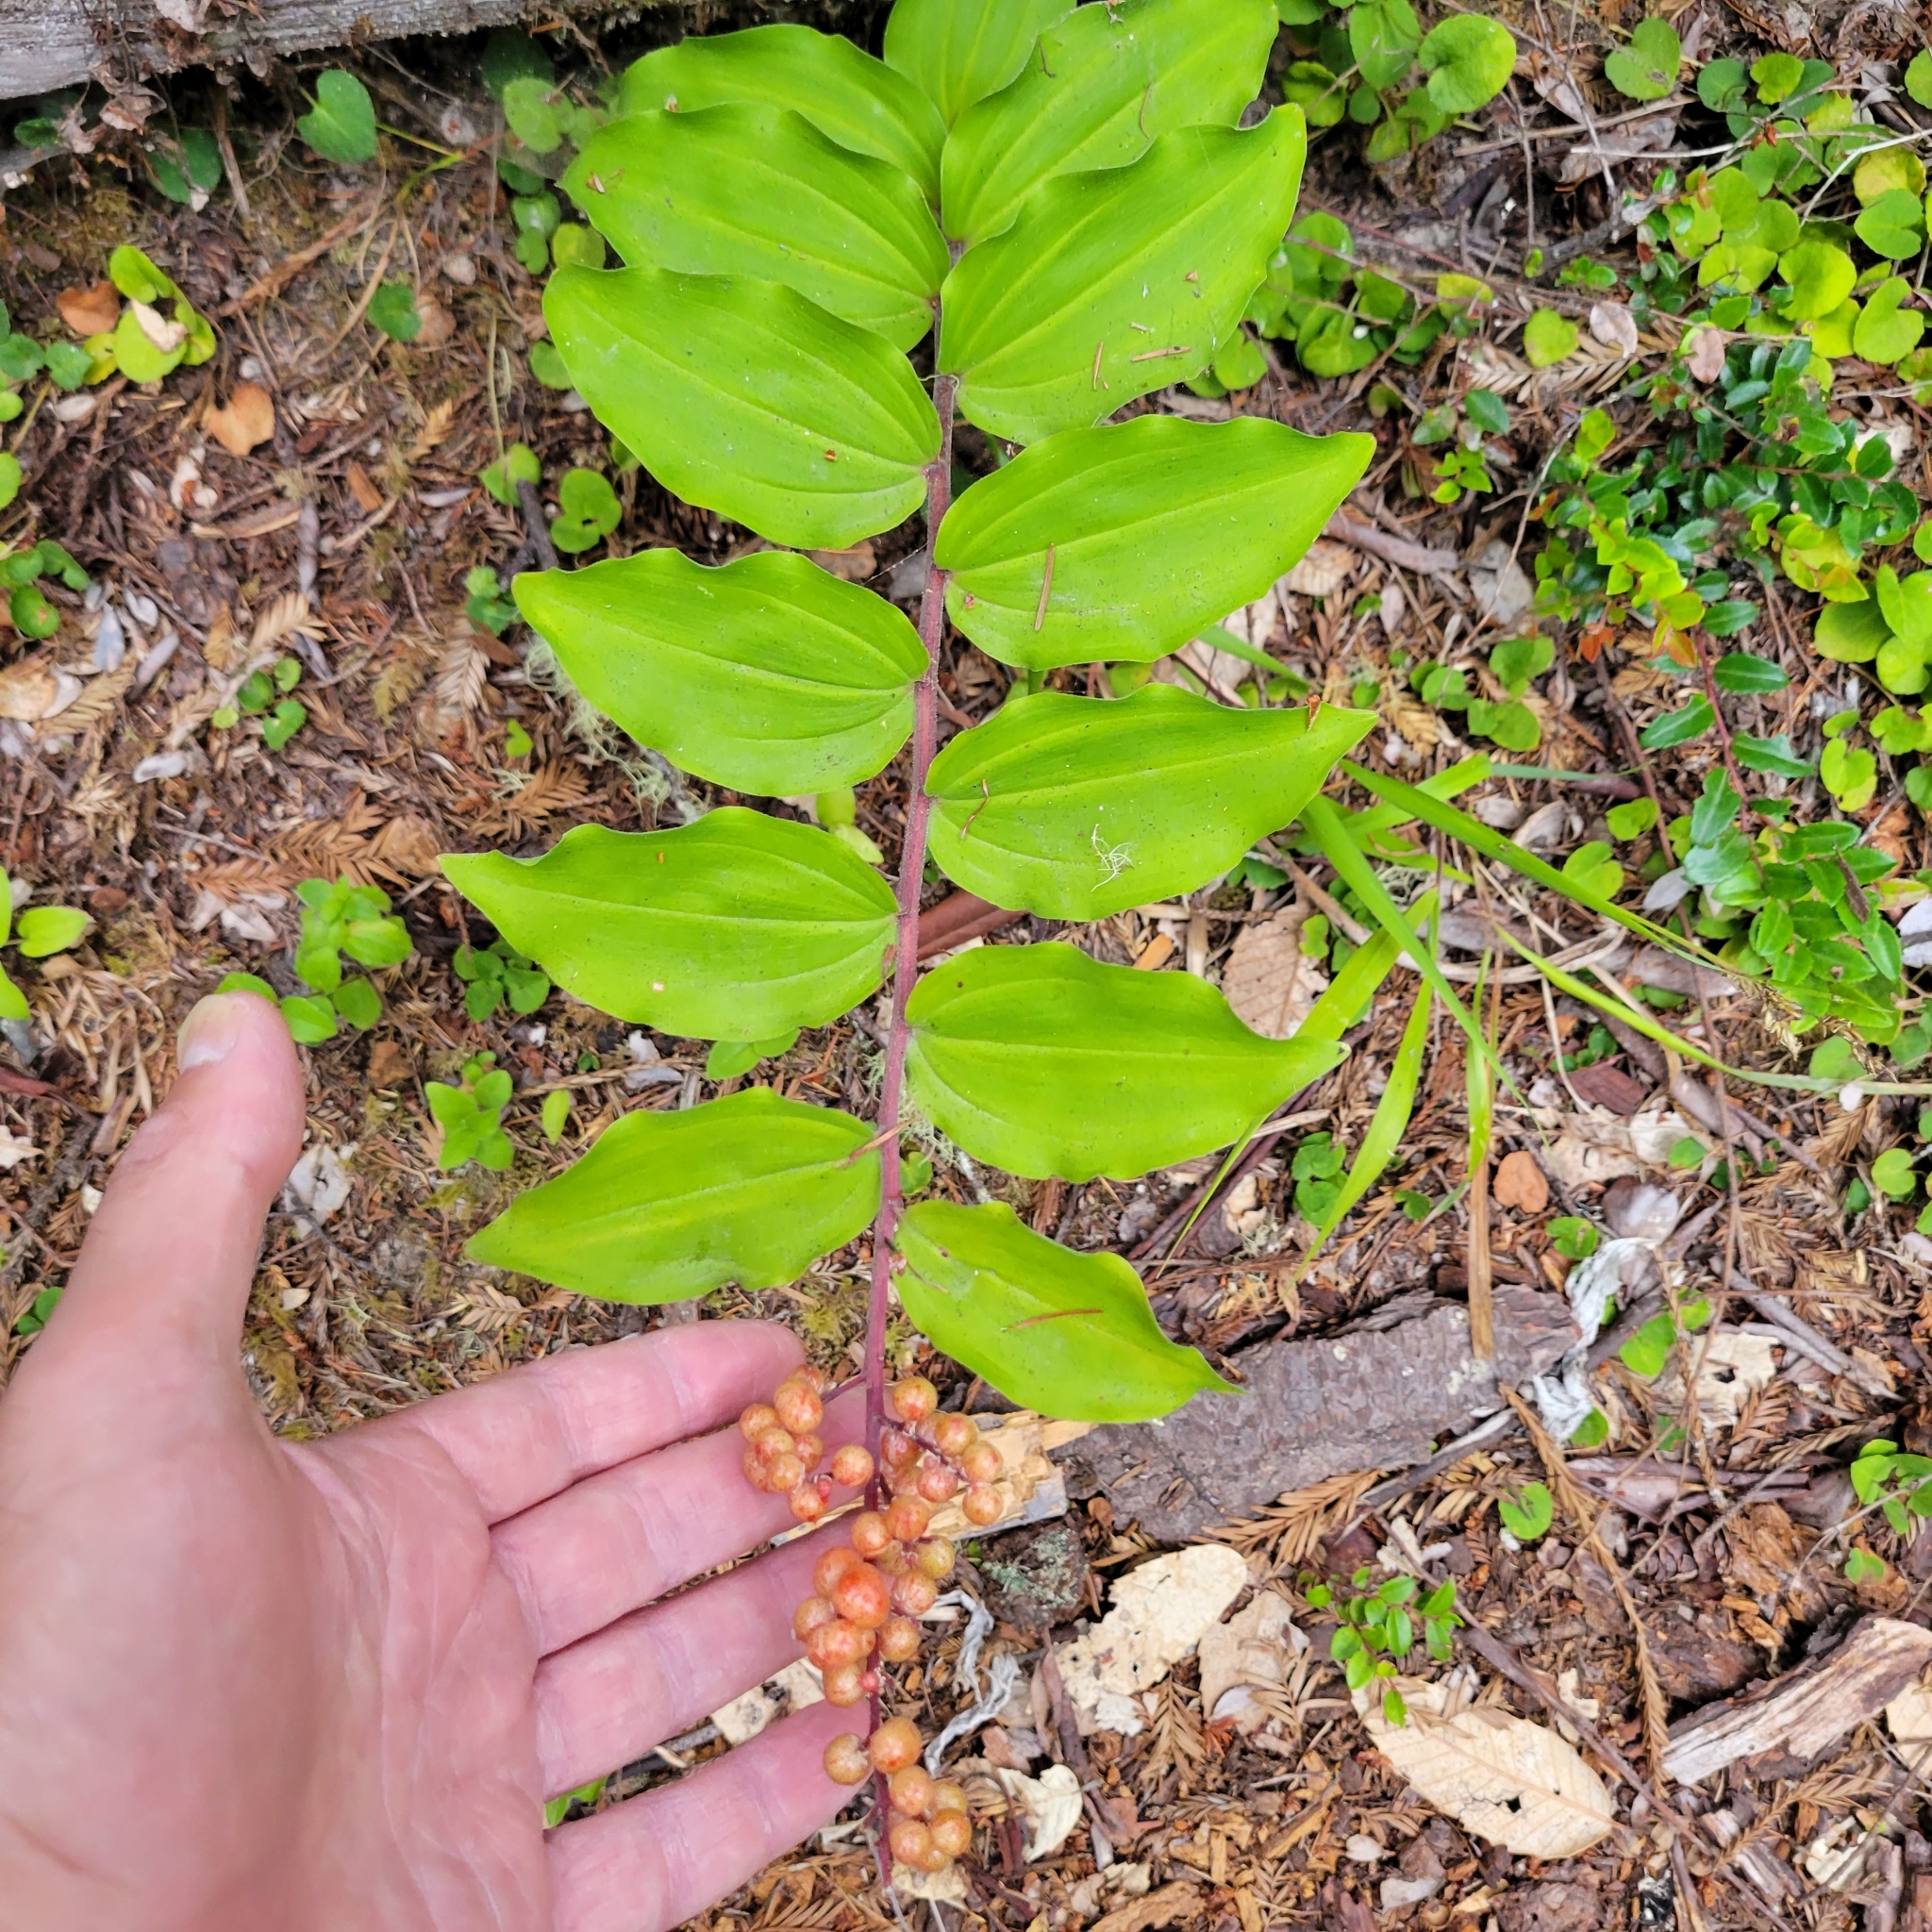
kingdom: Plantae
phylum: Tracheophyta
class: Liliopsida
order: Asparagales
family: Asparagaceae
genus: Maianthemum
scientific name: Maianthemum racemosum
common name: False spikenard
